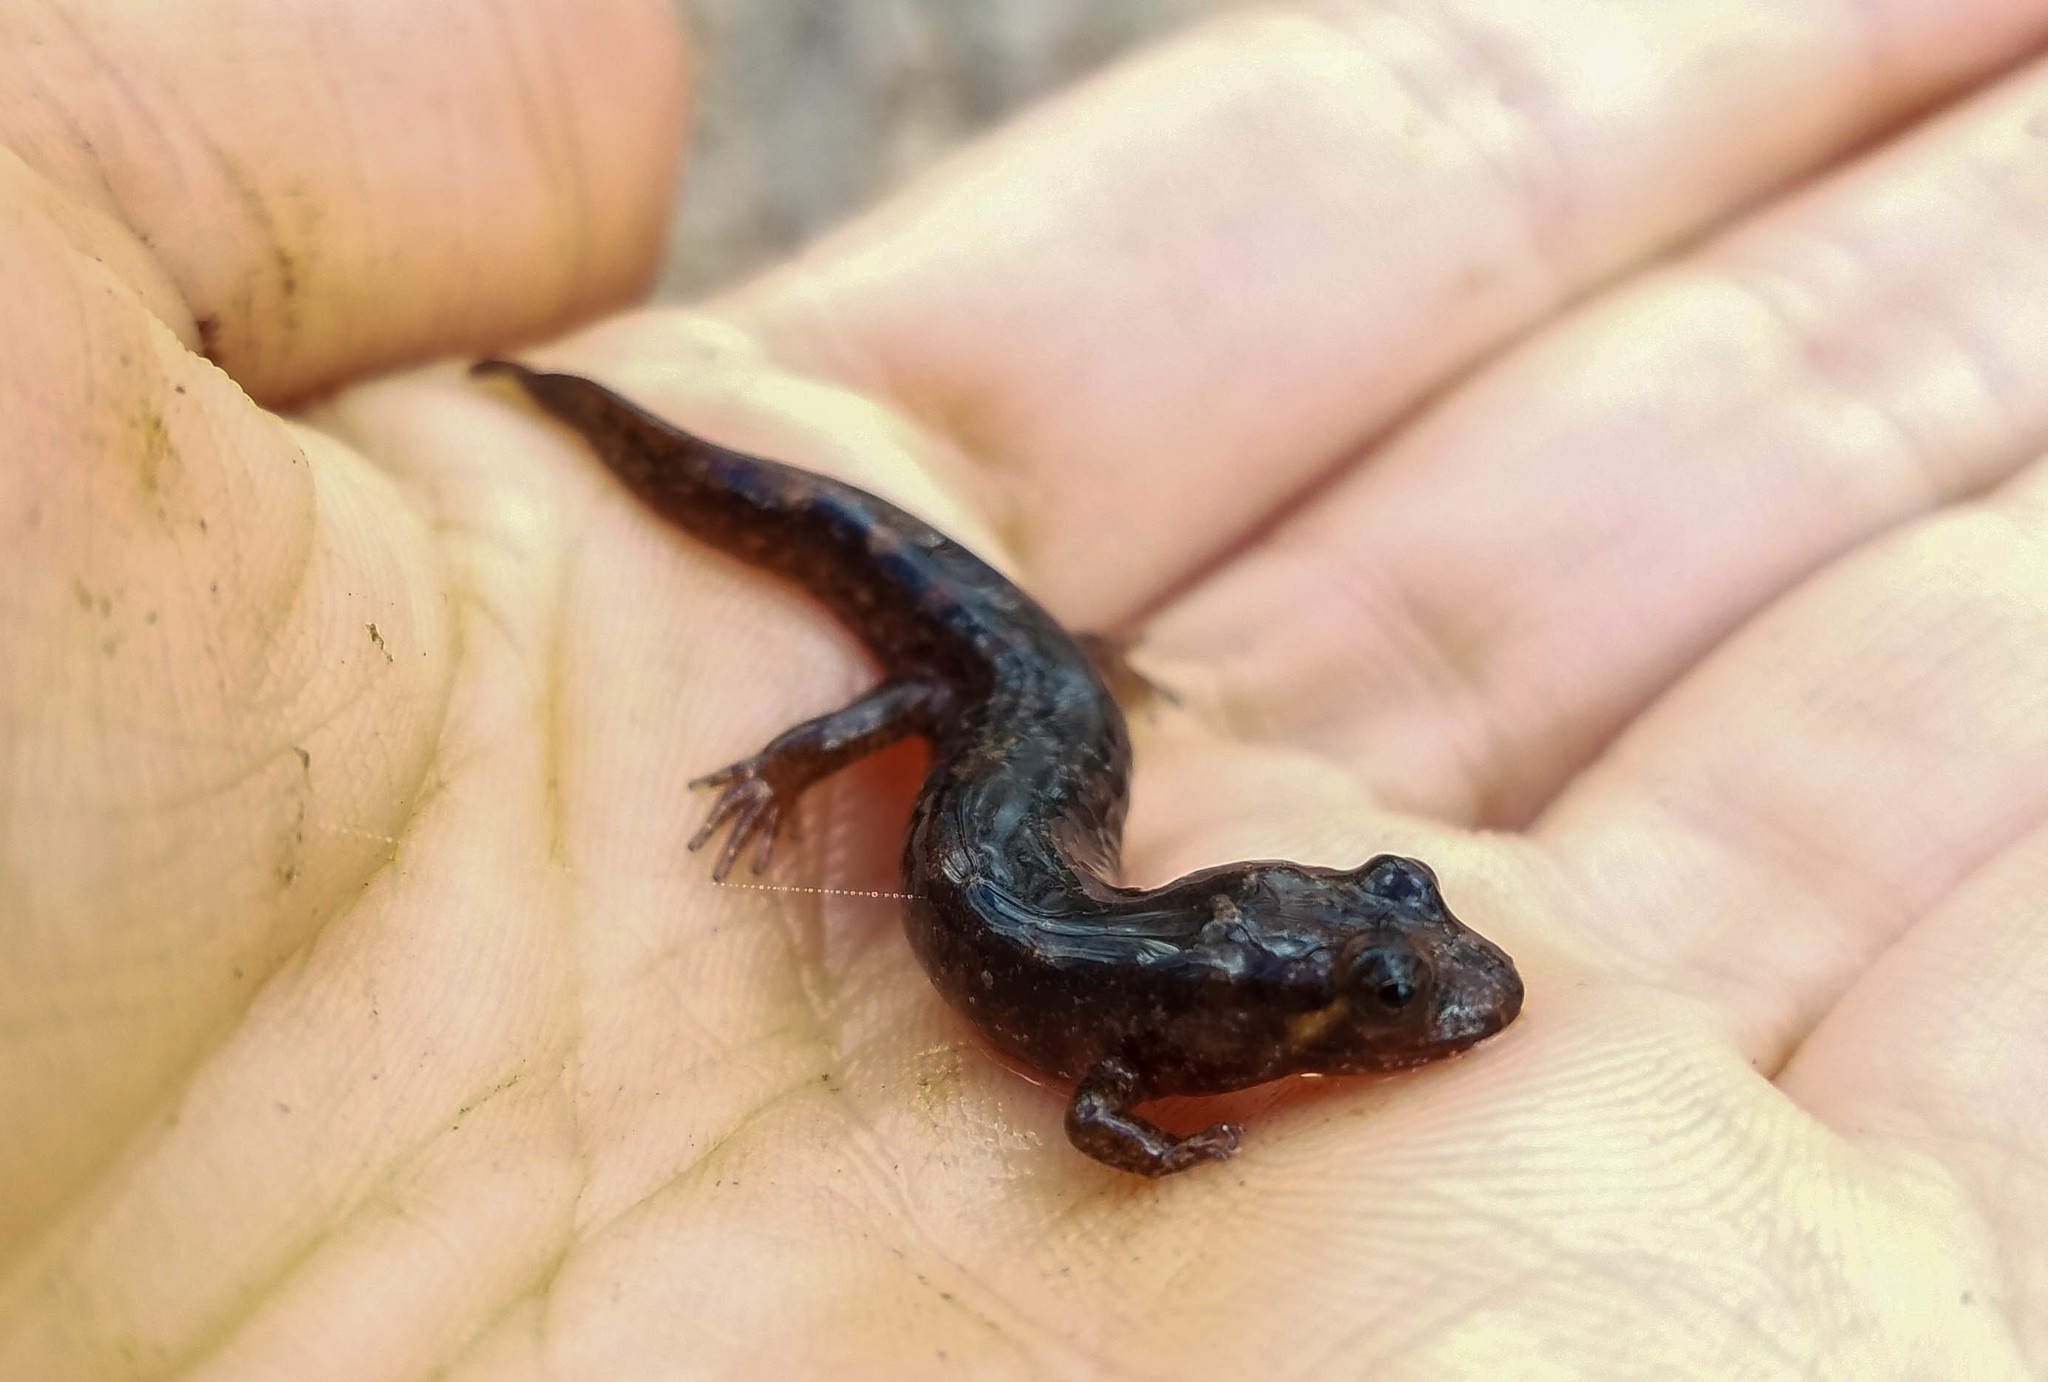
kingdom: Animalia
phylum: Chordata
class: Amphibia
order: Caudata
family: Plethodontidae
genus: Desmognathus
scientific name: Desmognathus monticola
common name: Seal salamander
